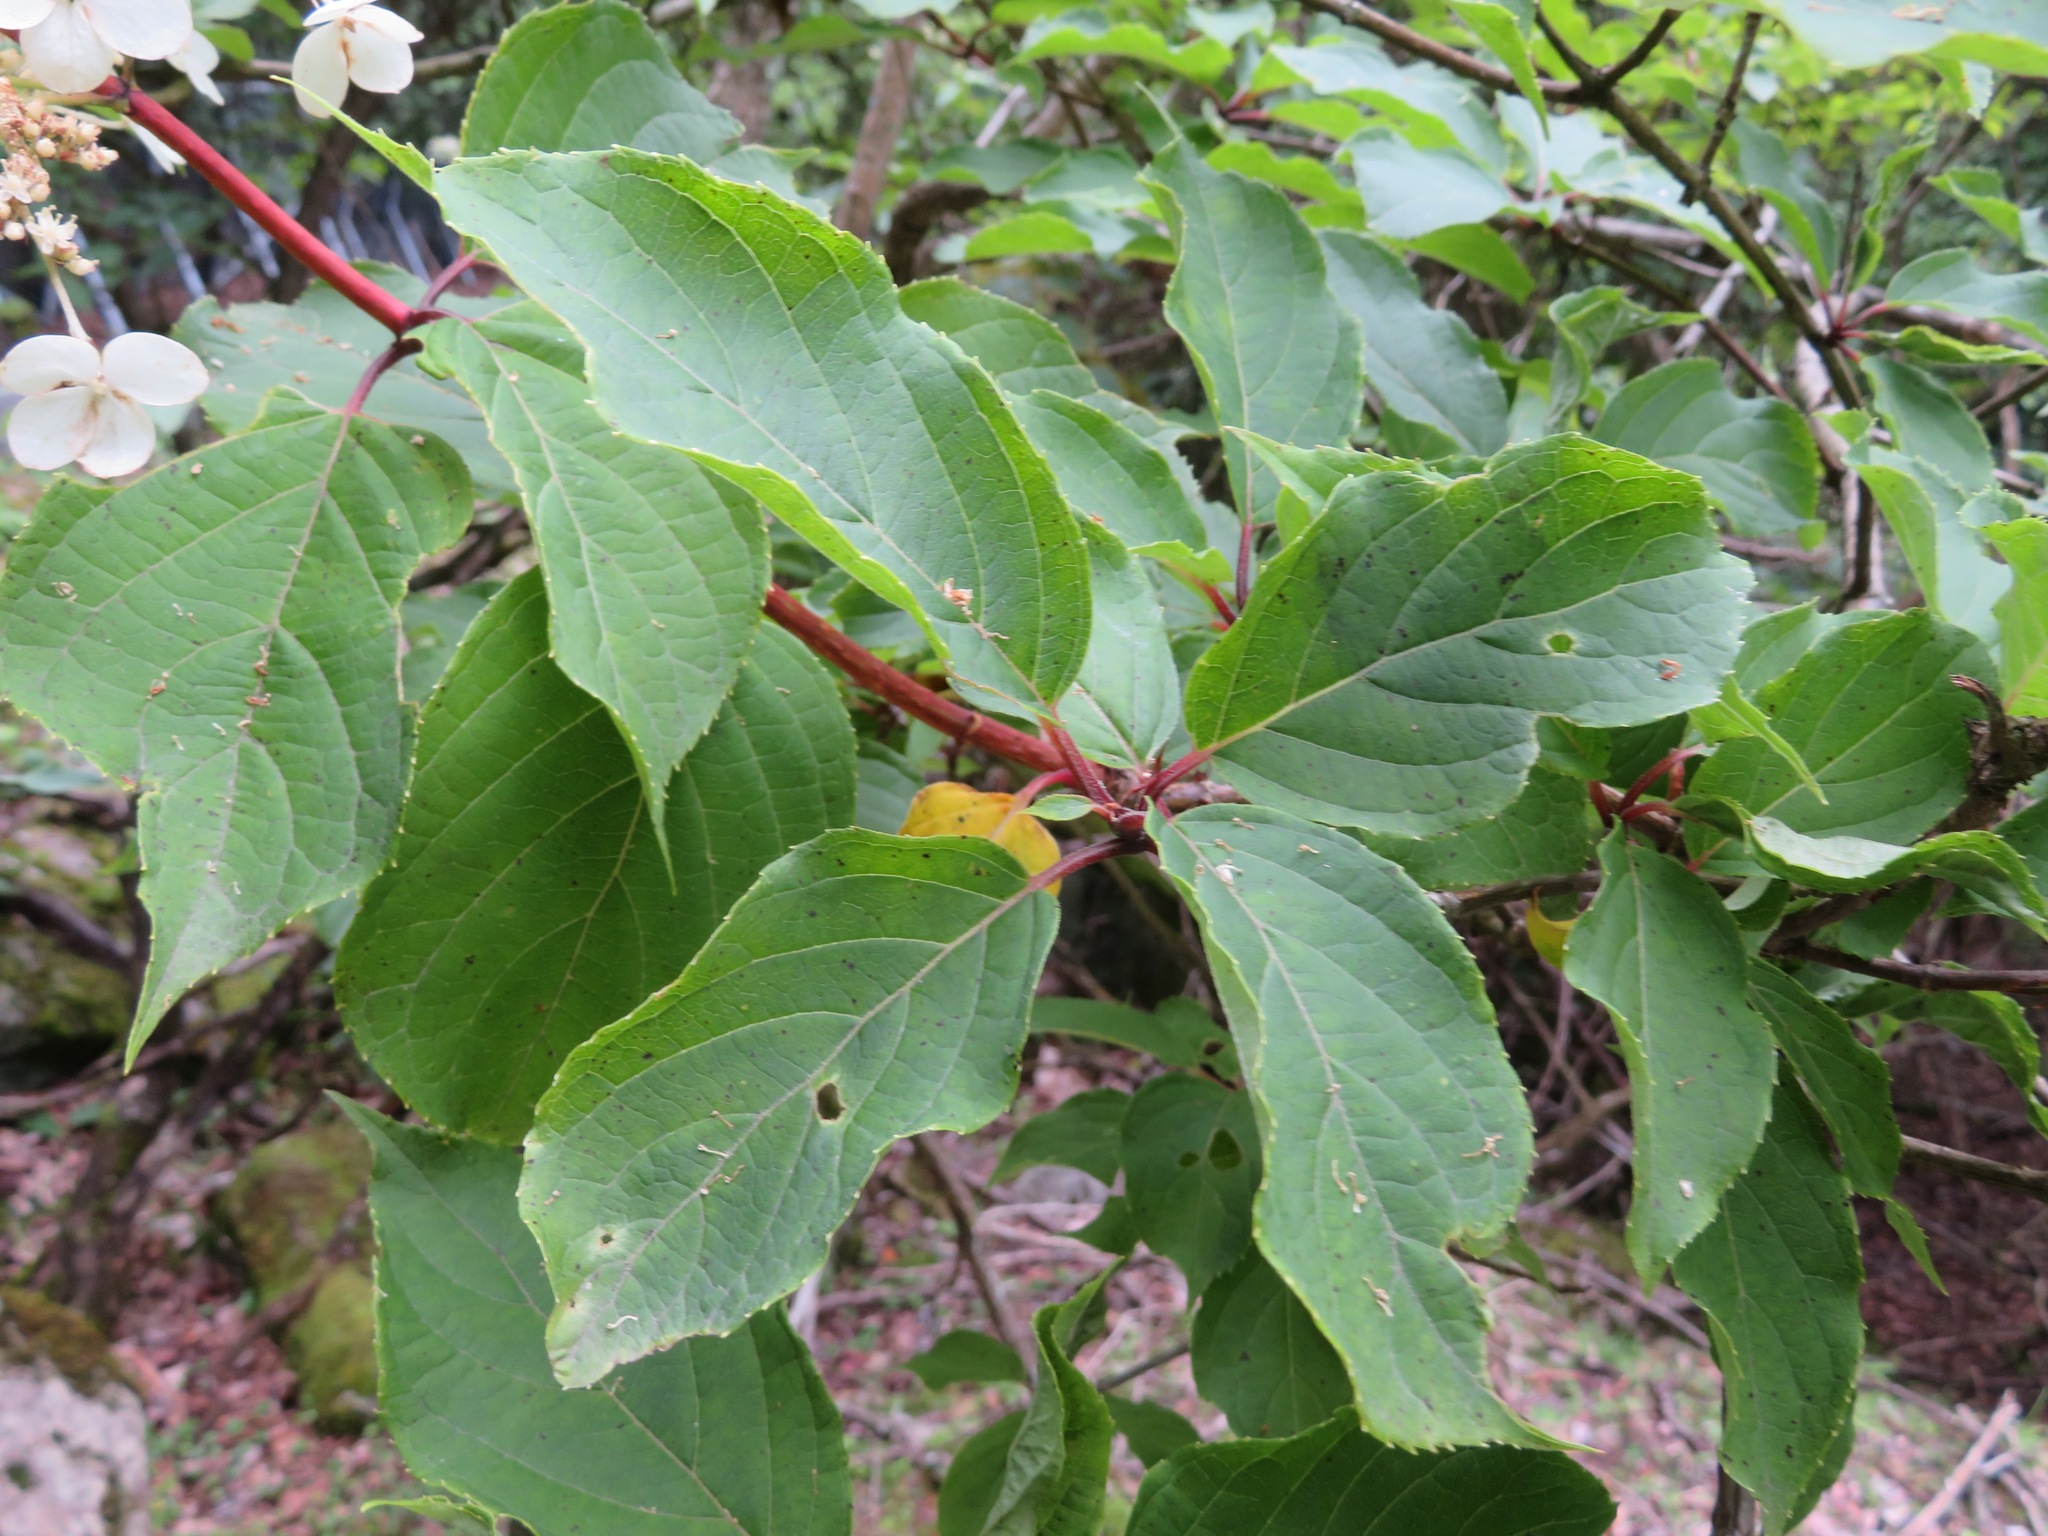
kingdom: Plantae
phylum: Tracheophyta
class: Magnoliopsida
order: Cornales
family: Hydrangeaceae
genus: Hydrangea
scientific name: Hydrangea paniculata
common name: Panicled hydrangea
